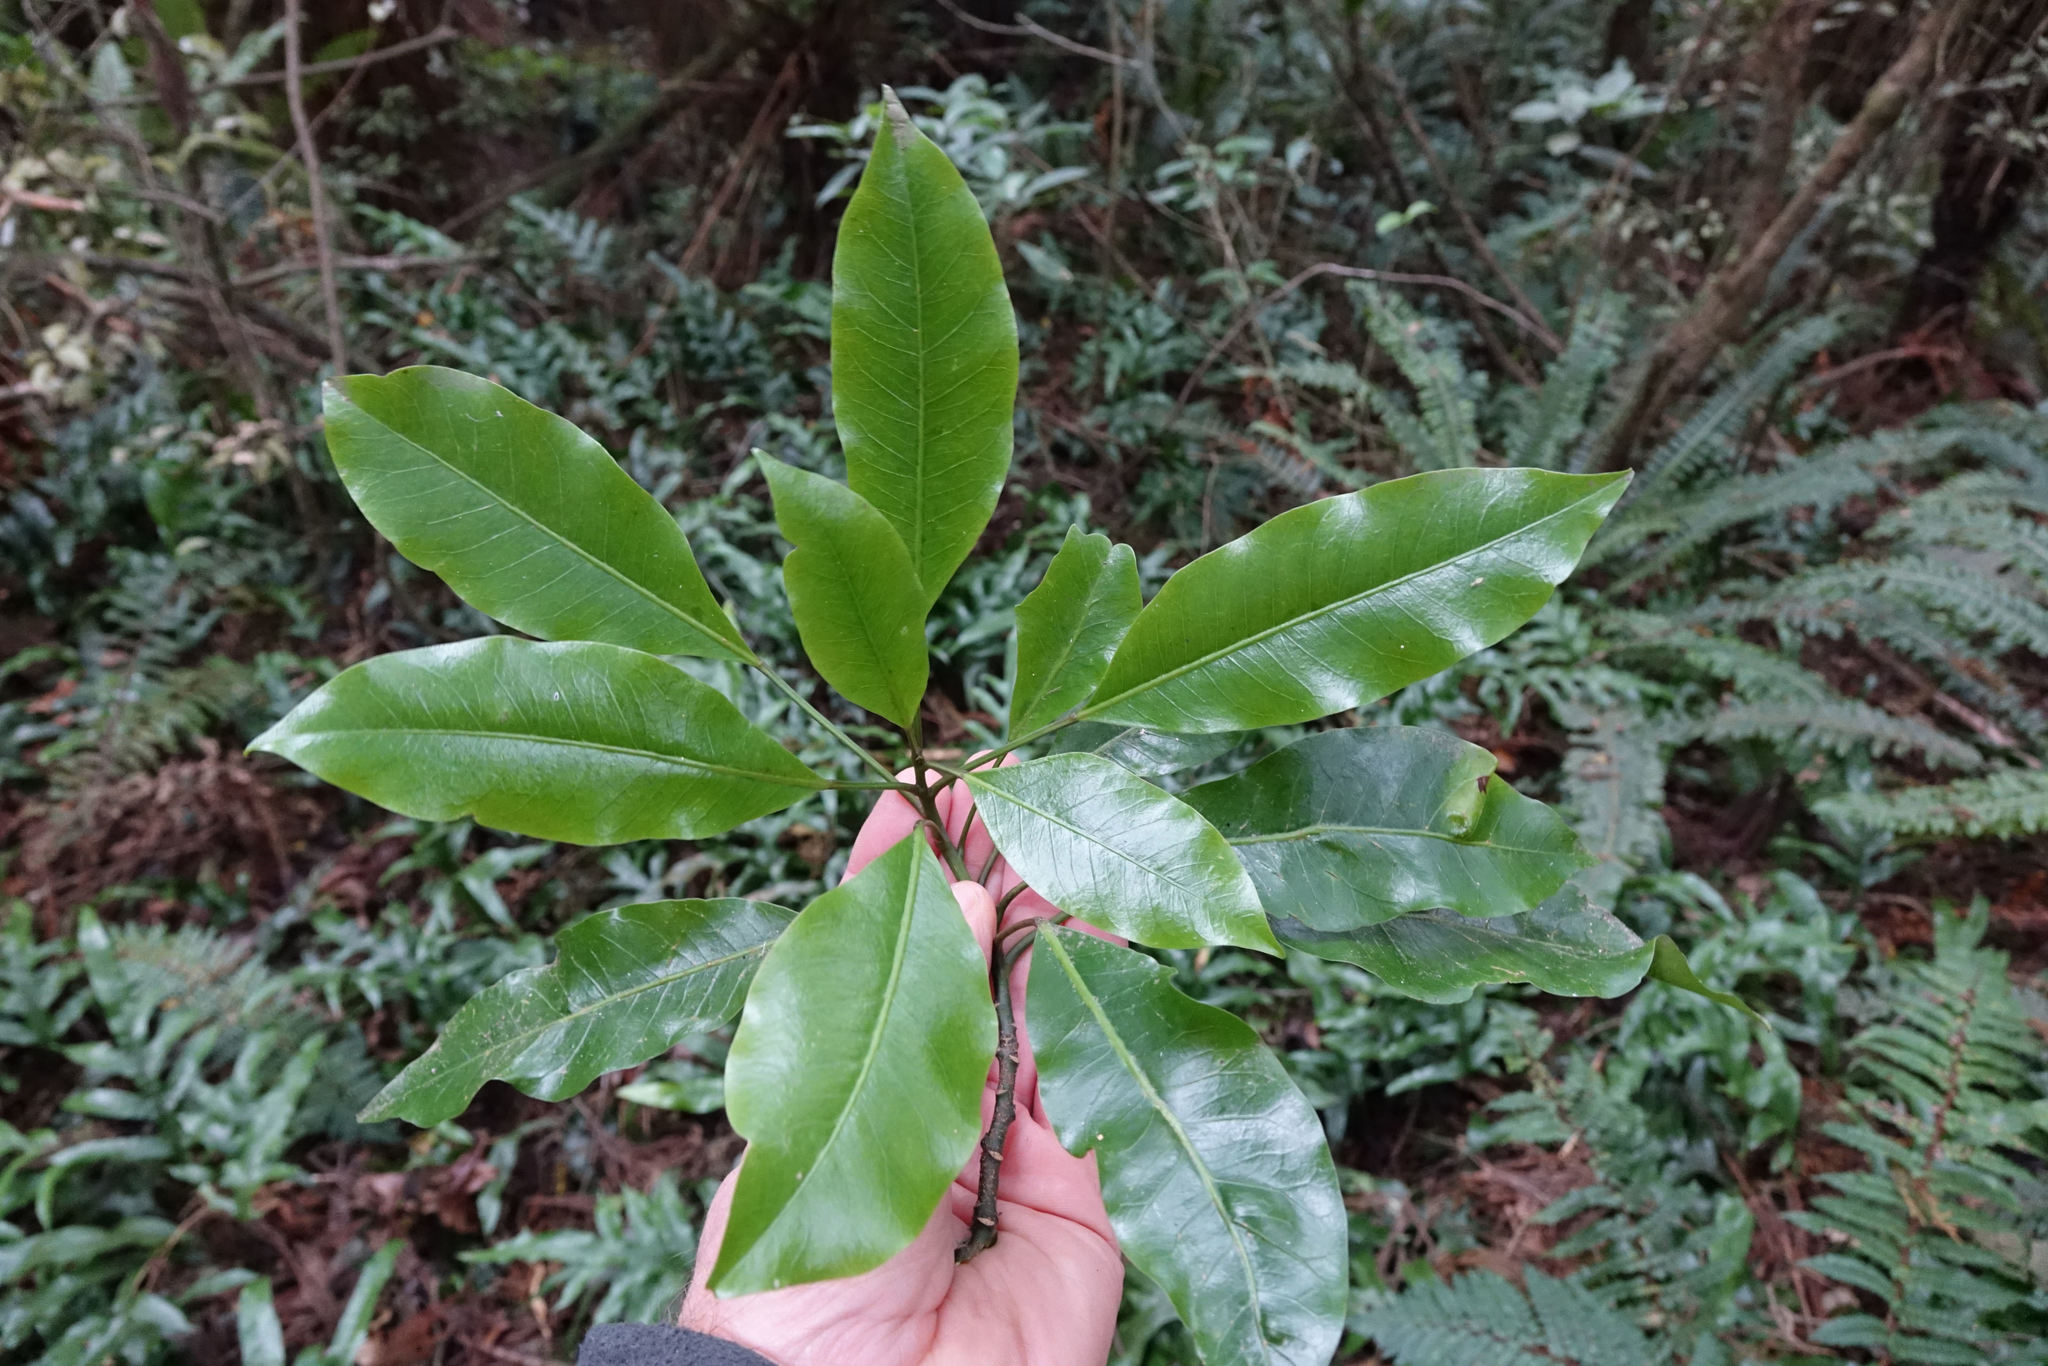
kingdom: Plantae
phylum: Tracheophyta
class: Magnoliopsida
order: Apiales
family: Araliaceae
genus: Raukaua
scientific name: Raukaua edgerleyi
